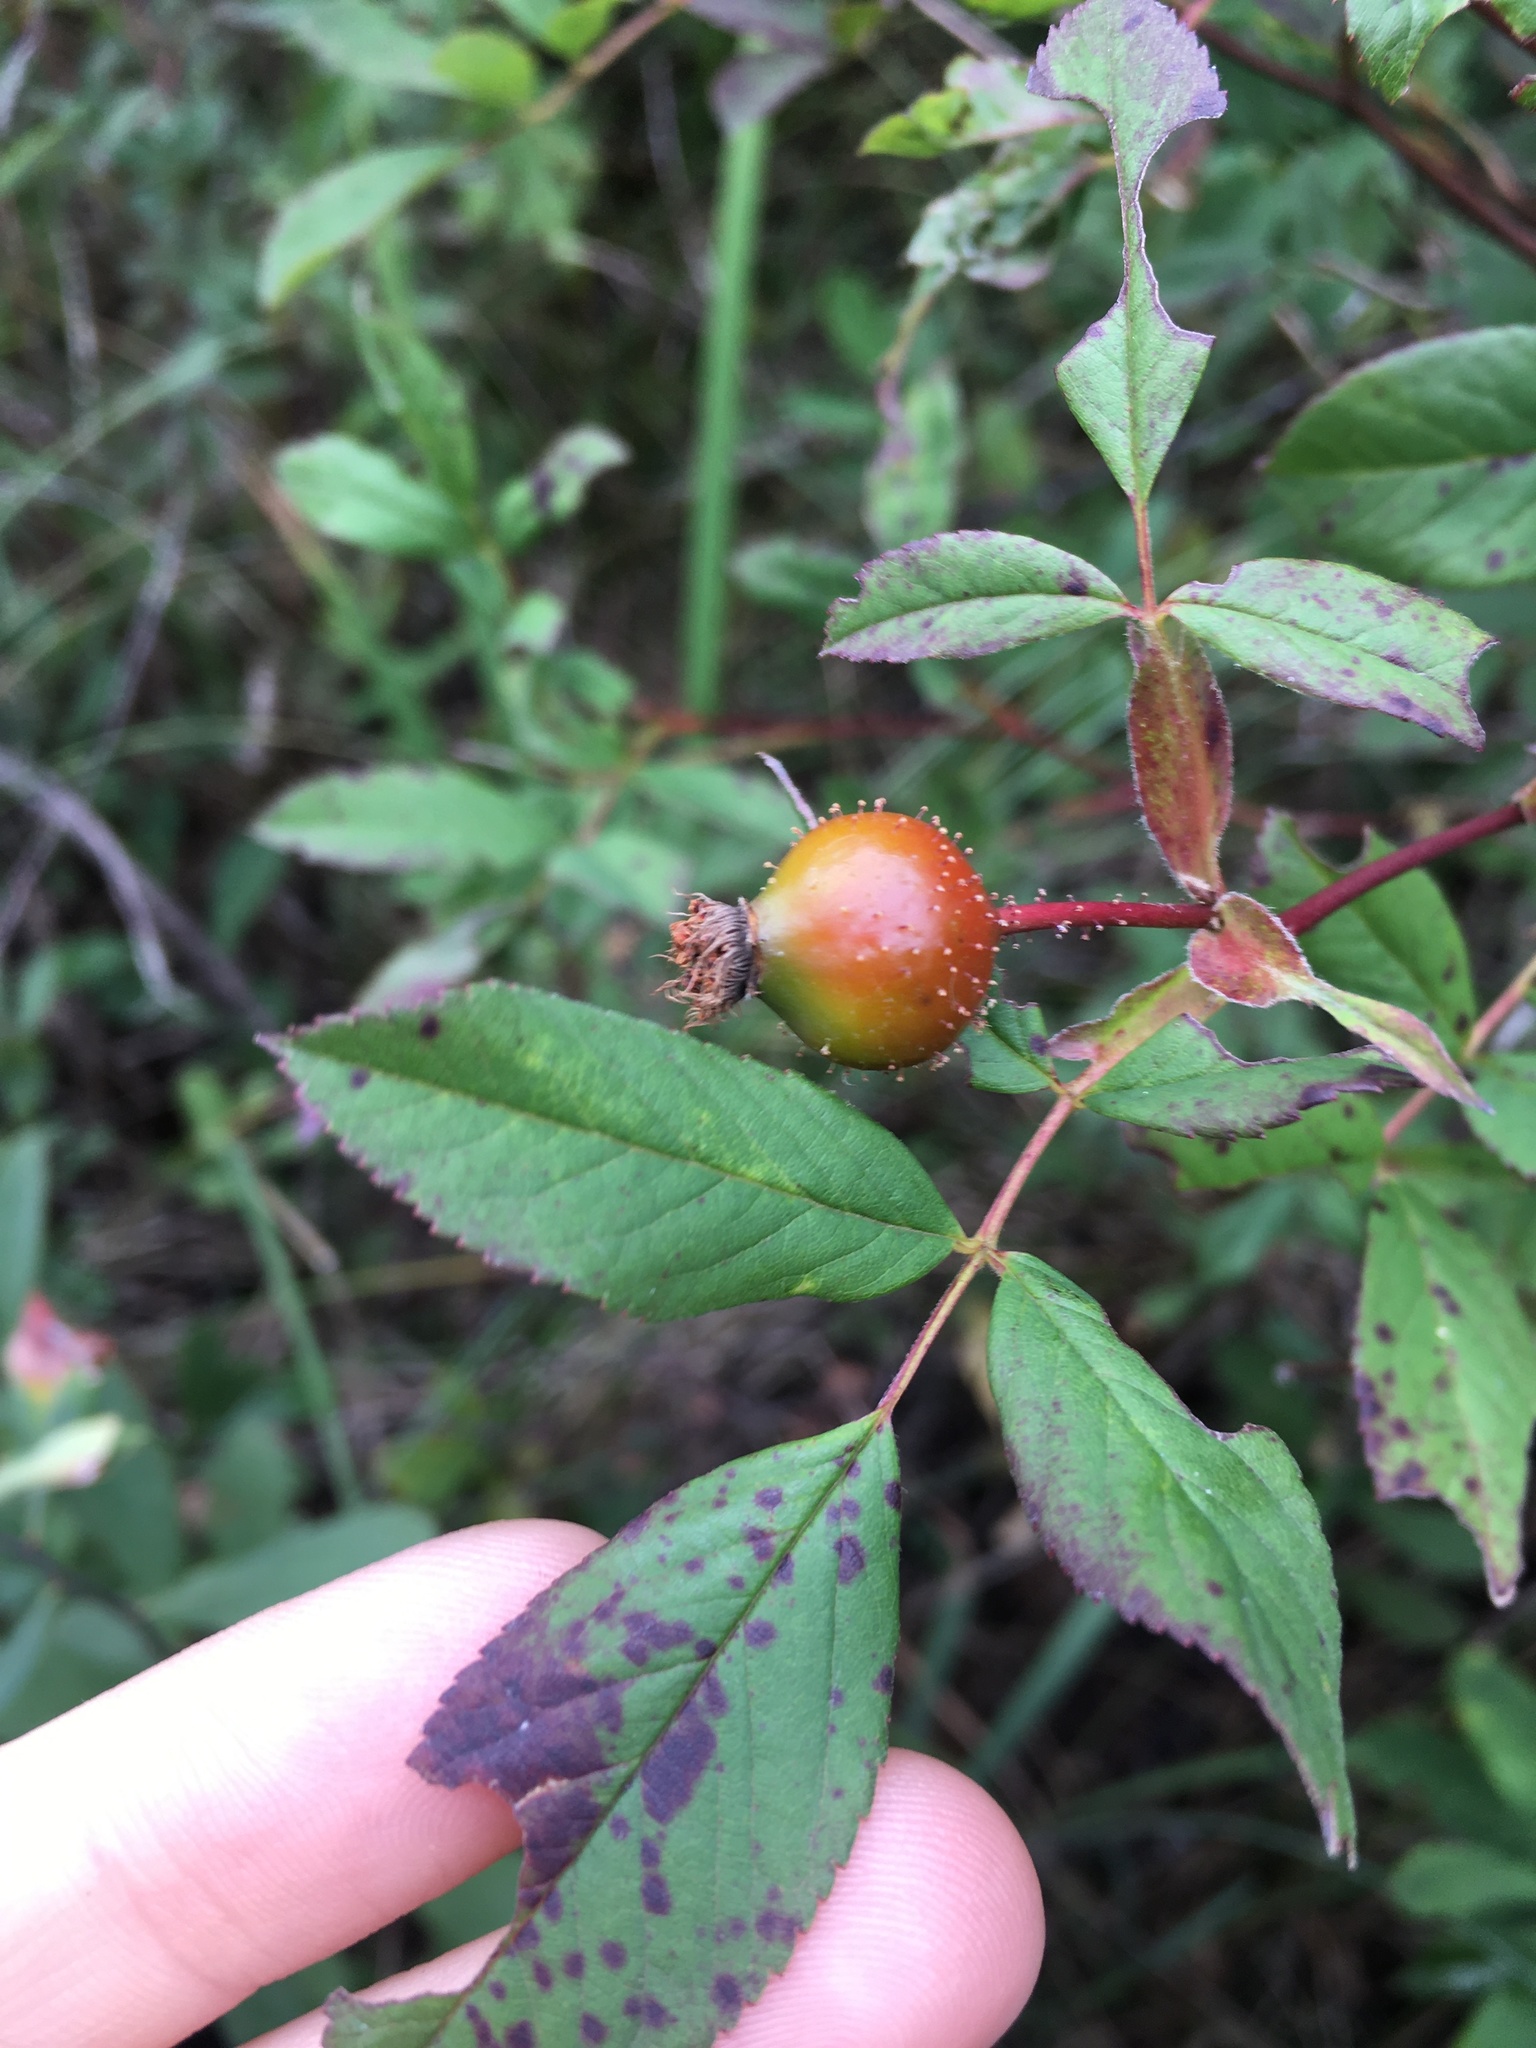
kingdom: Plantae
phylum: Tracheophyta
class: Magnoliopsida
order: Rosales
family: Rosaceae
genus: Rosa
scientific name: Rosa palustris
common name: Swamp rose
